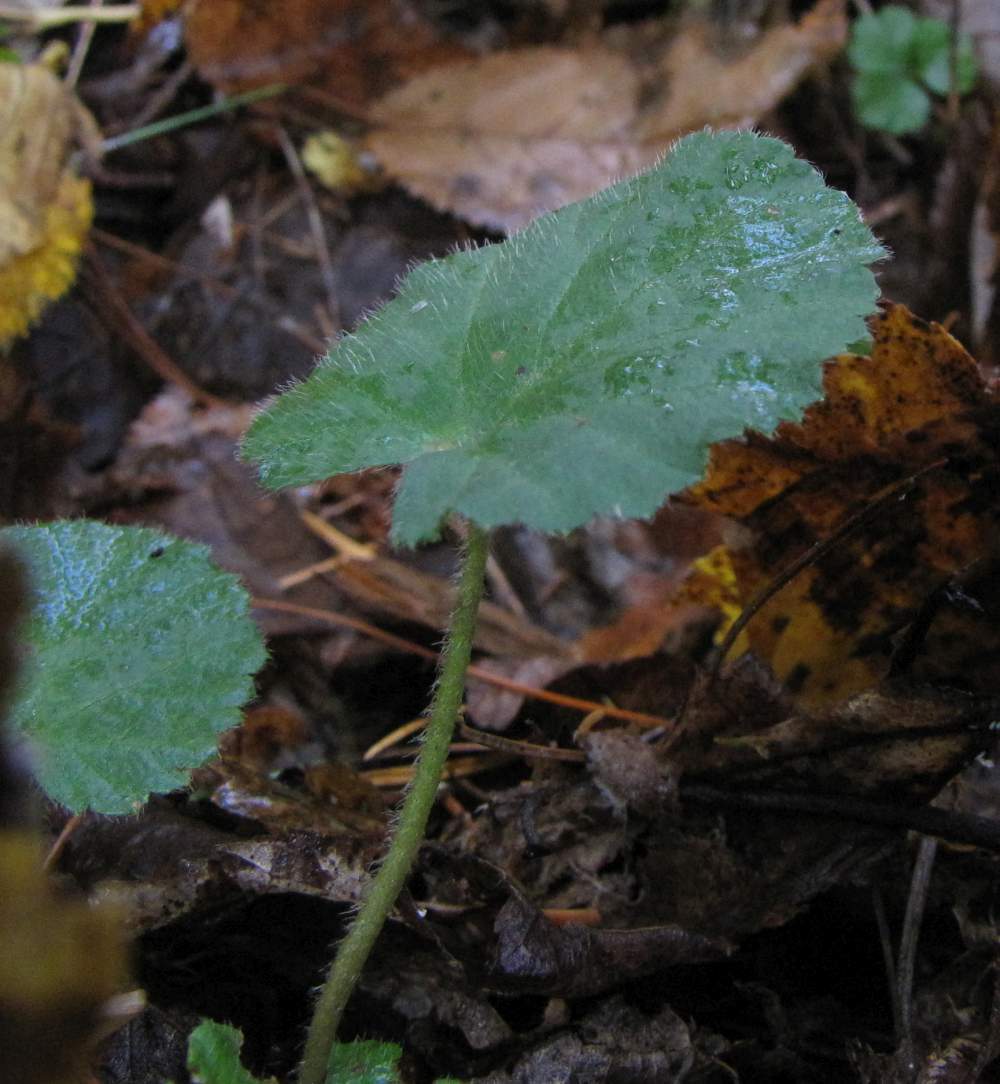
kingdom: Plantae
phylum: Tracheophyta
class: Magnoliopsida
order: Rosales
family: Rosaceae
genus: Dalibarda
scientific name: Dalibarda repens
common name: Dewdrop
